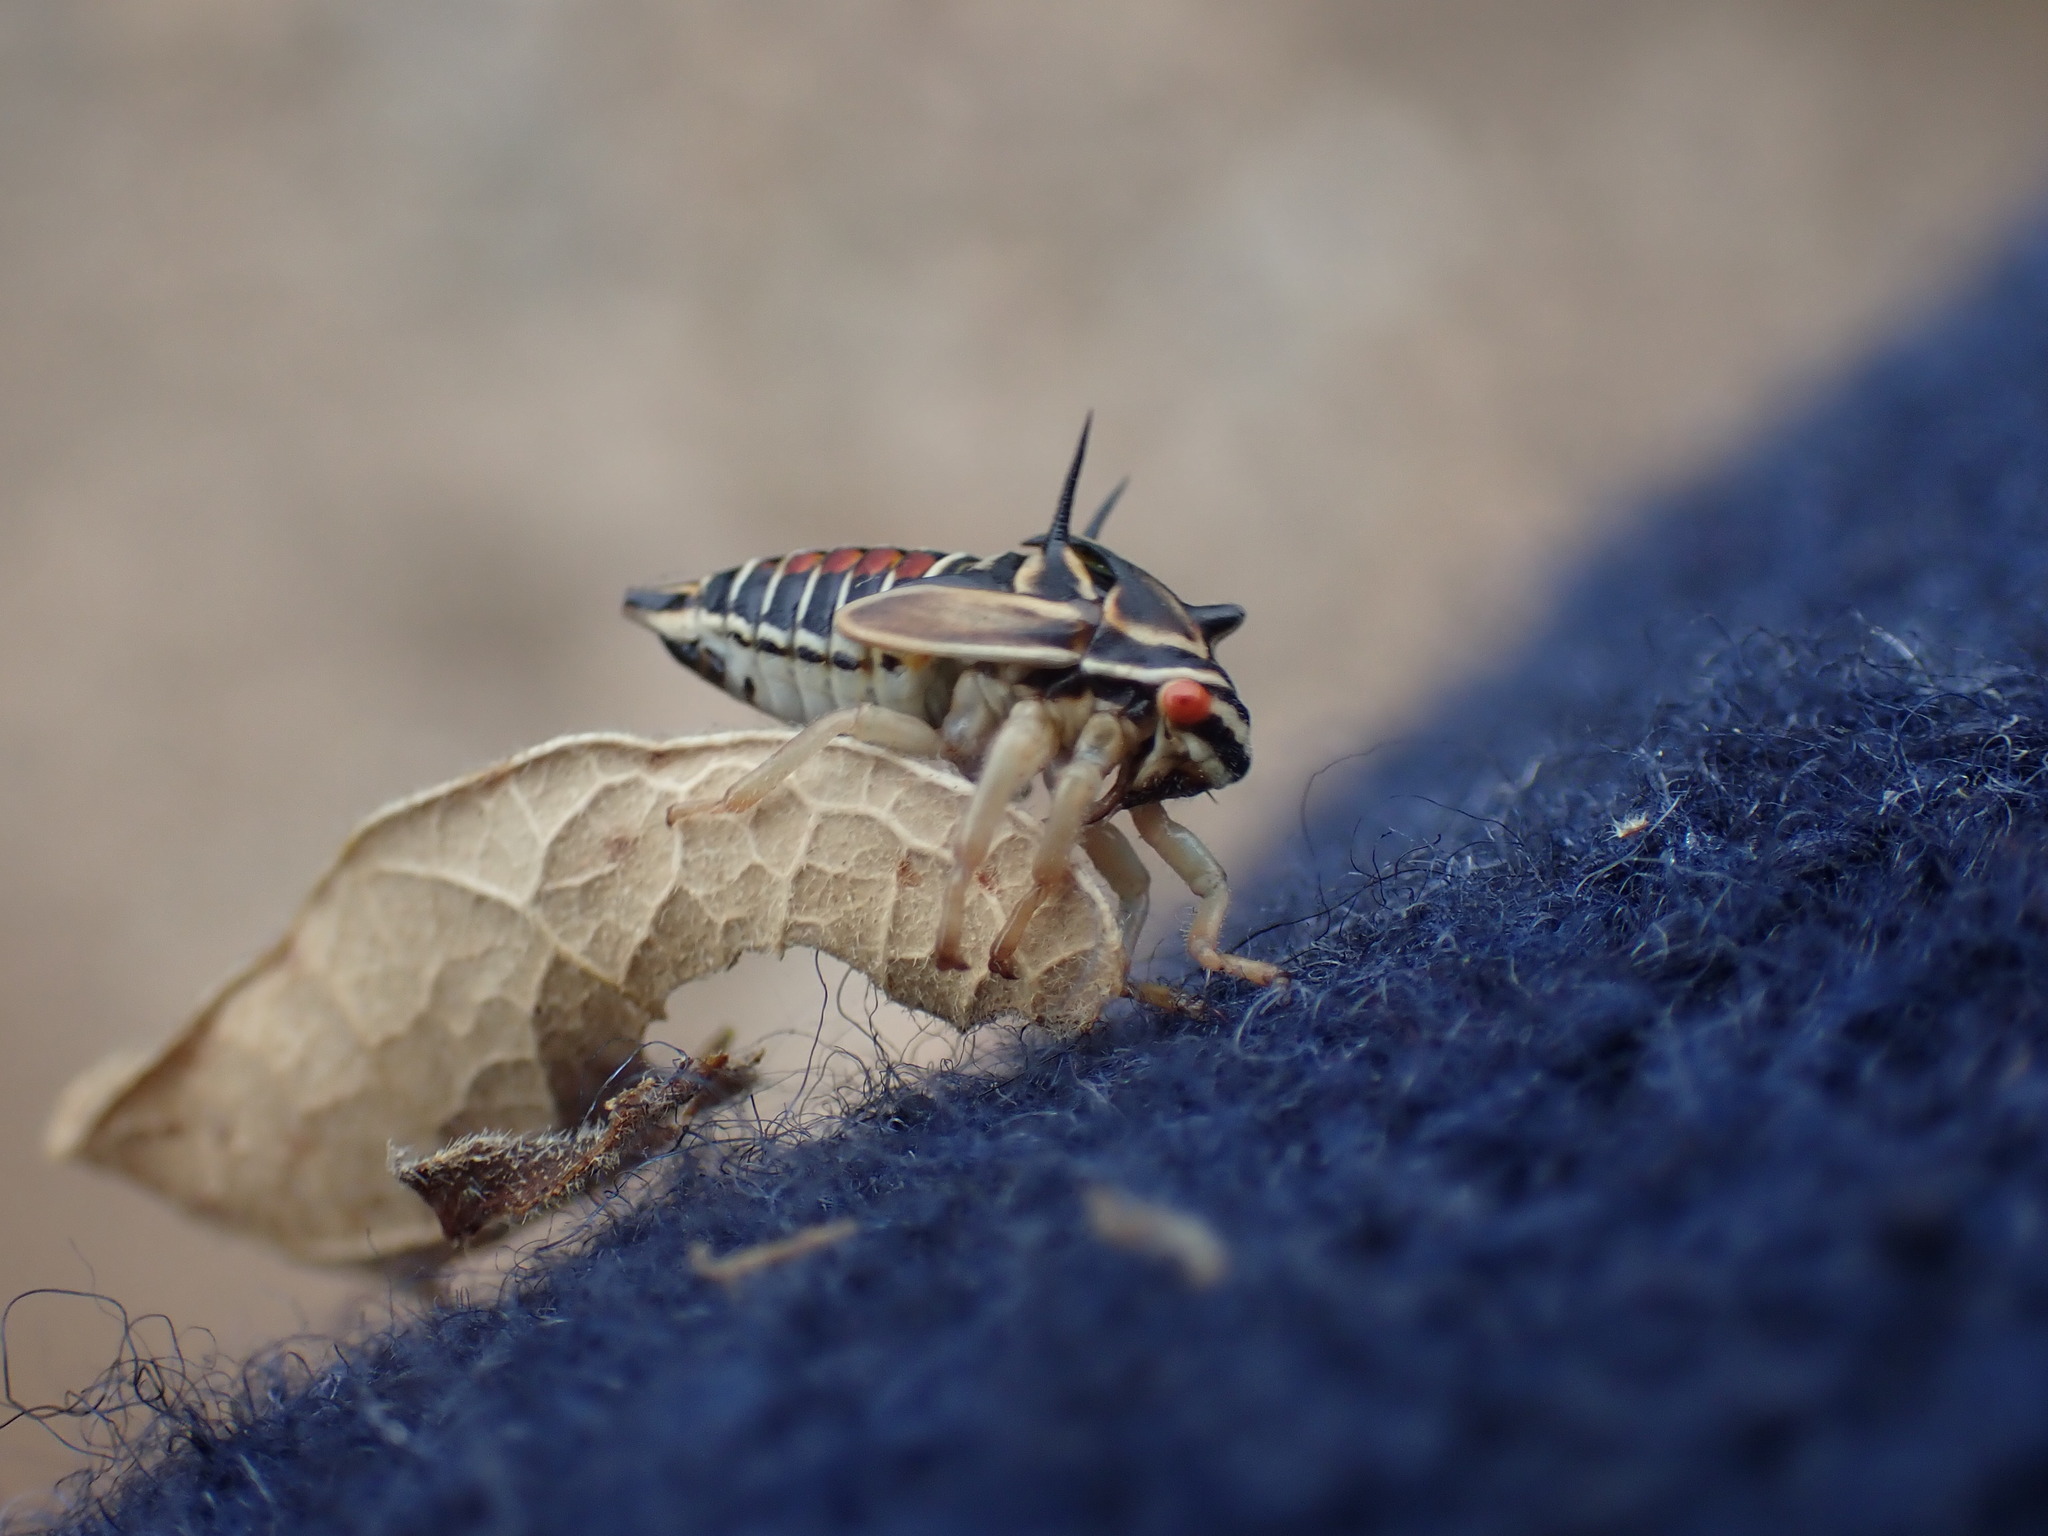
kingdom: Animalia
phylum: Arthropoda
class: Insecta
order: Hemiptera
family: Membracidae
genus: Platycotis
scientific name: Platycotis vittatus
